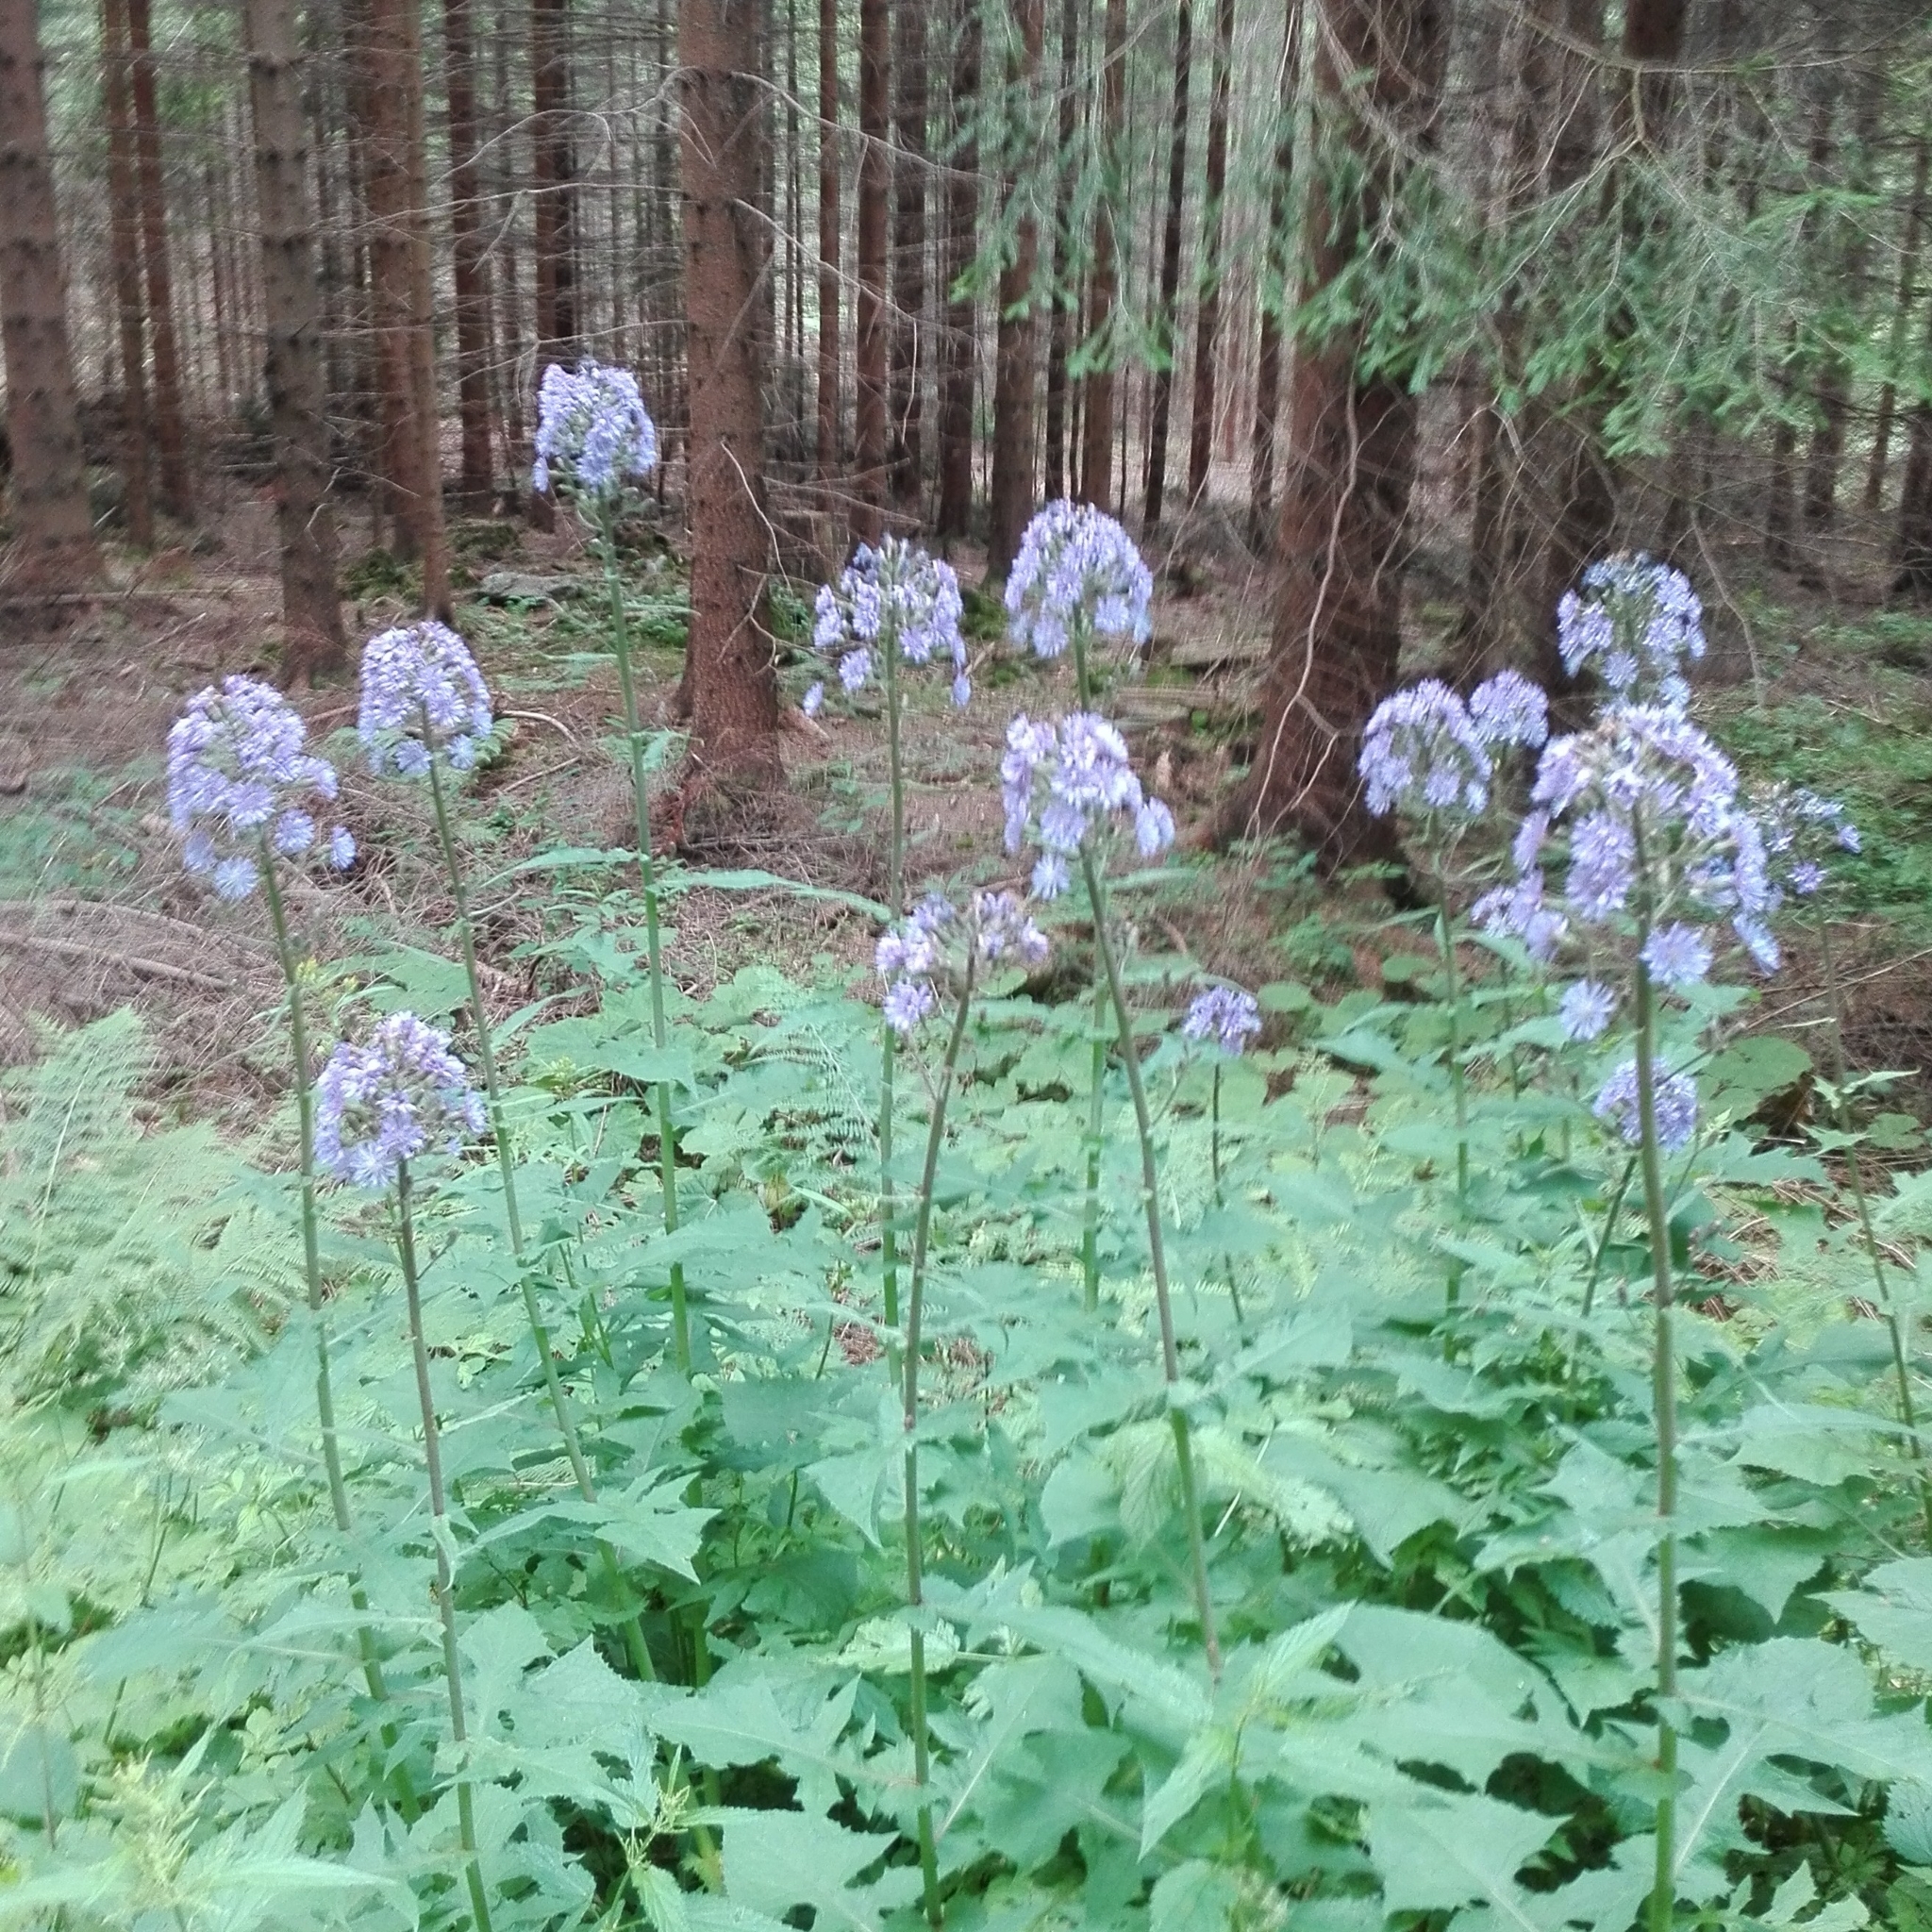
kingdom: Plantae
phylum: Tracheophyta
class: Magnoliopsida
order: Asterales
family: Asteraceae
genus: Cicerbita
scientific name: Cicerbita alpina
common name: Alpine blue-sow-thistle
